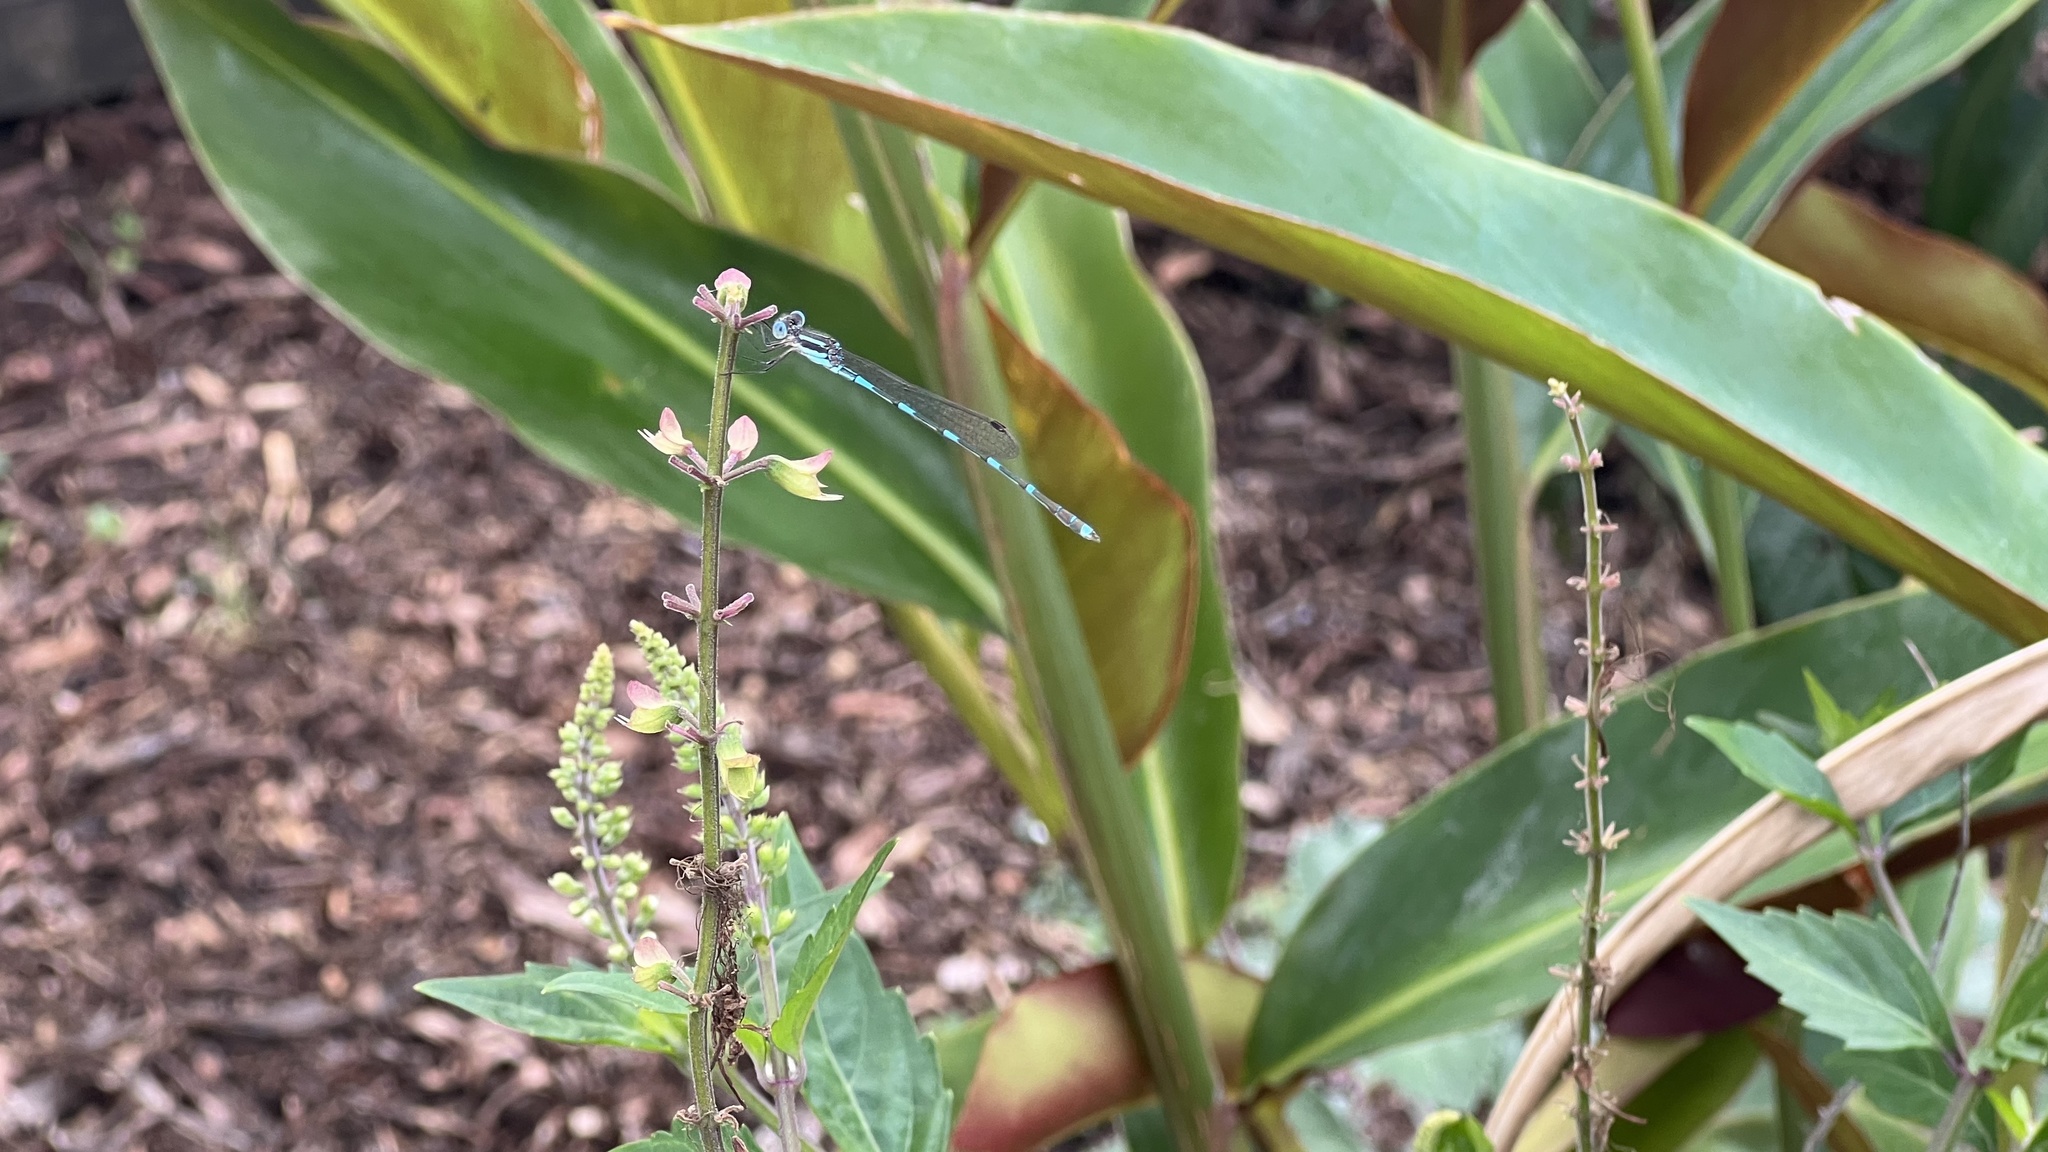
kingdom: Animalia
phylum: Arthropoda
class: Insecta
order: Odonata
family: Lestidae
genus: Austrolestes
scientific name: Austrolestes leda
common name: Wandering ringtail
